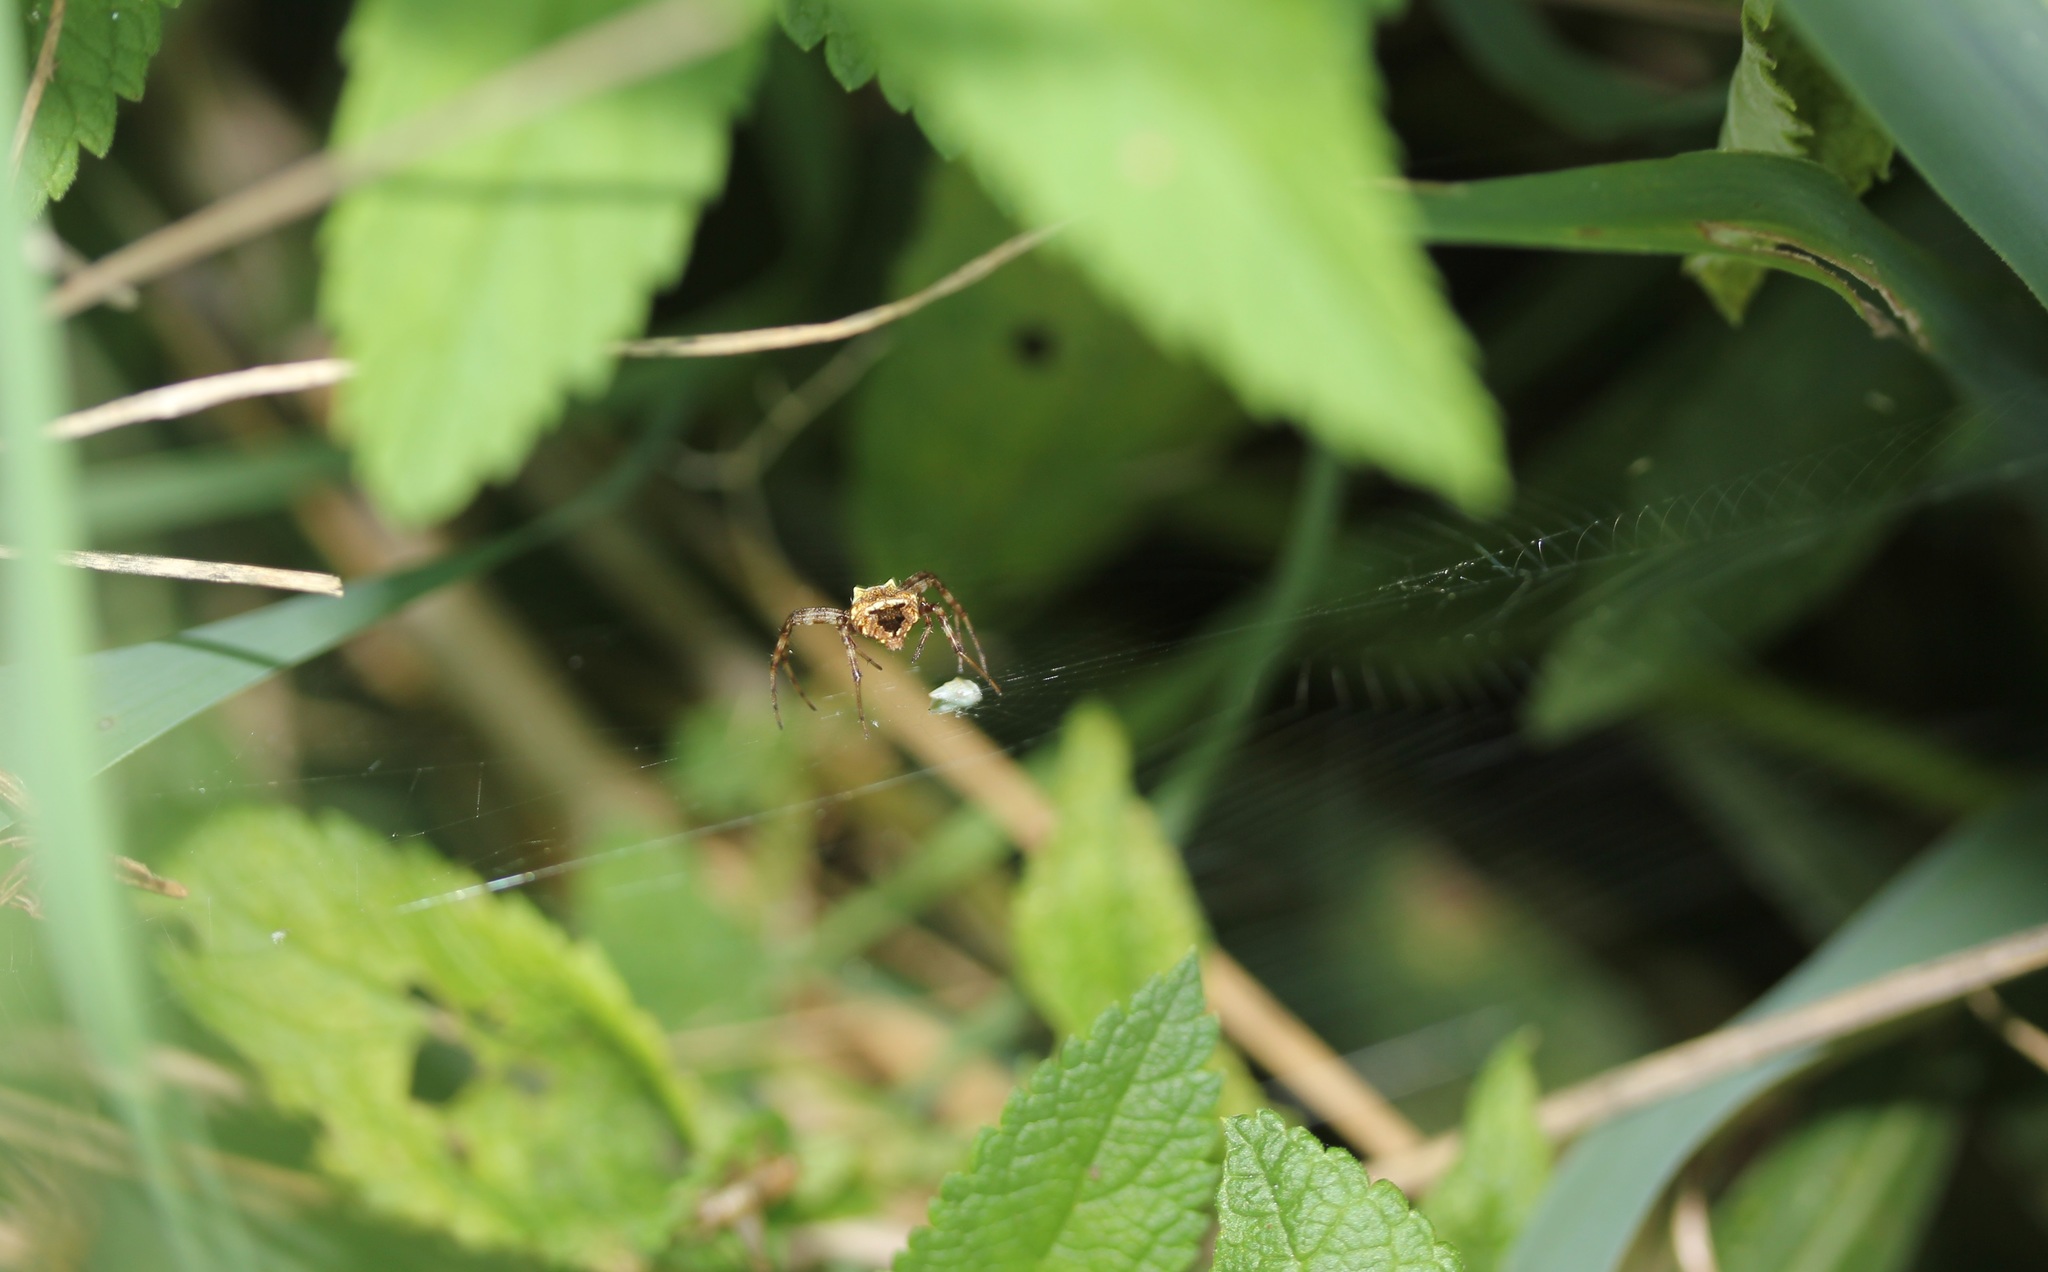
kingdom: Animalia
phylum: Arthropoda
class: Arachnida
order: Araneae
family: Araneidae
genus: Gea
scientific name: Gea heptagon
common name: Orb weavers
